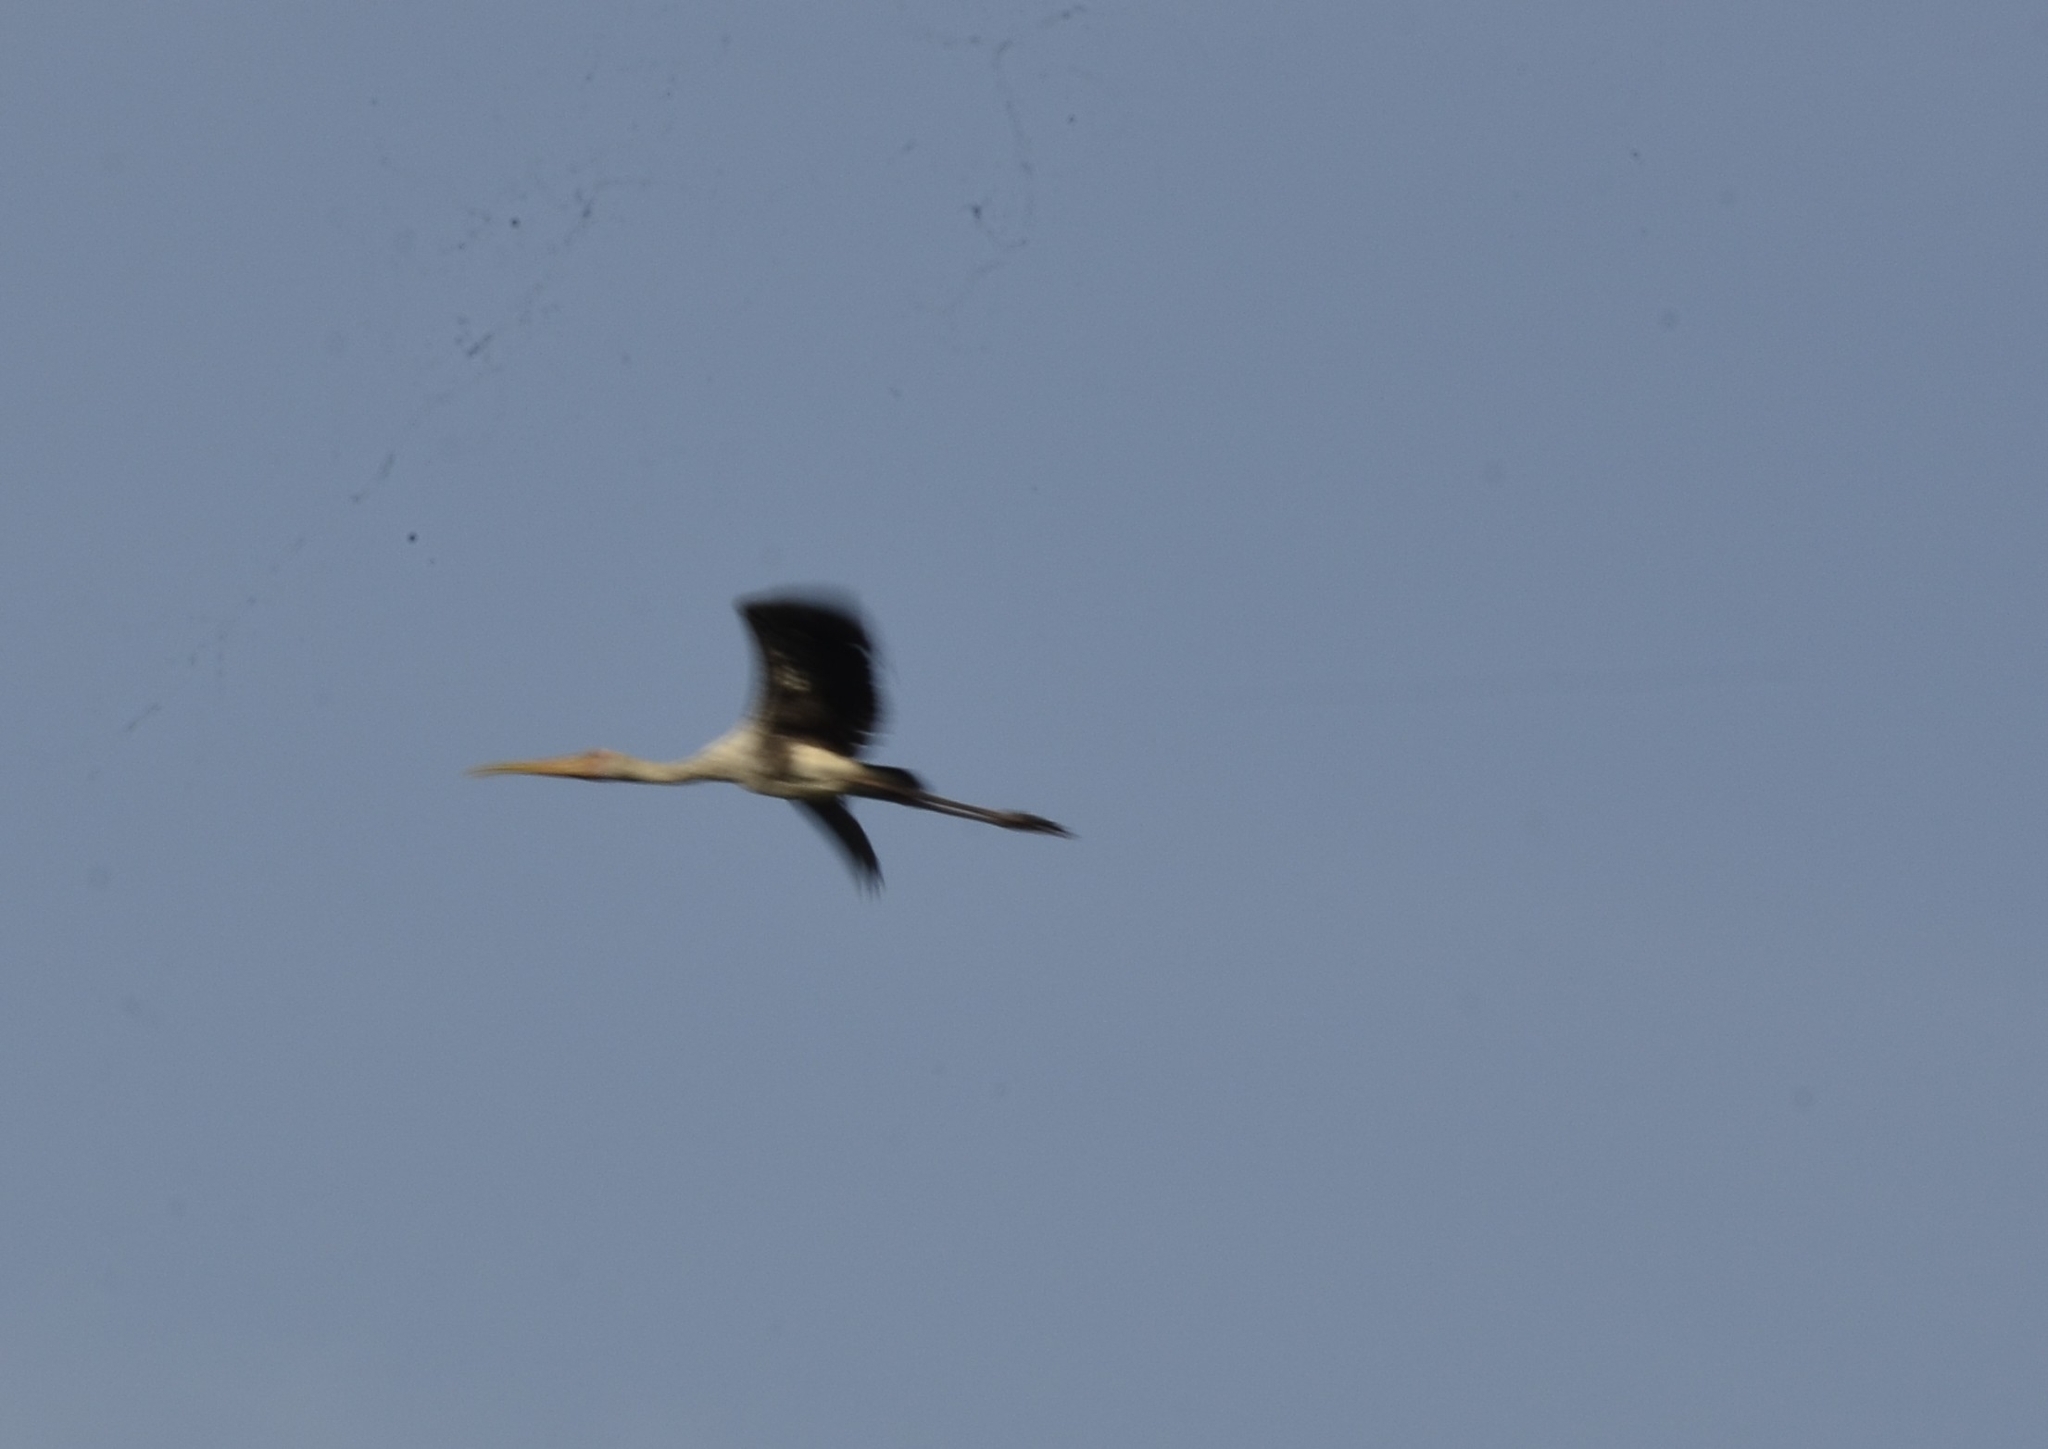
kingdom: Animalia
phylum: Chordata
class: Aves
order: Ciconiiformes
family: Ciconiidae
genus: Mycteria
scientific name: Mycteria leucocephala
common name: Painted stork
